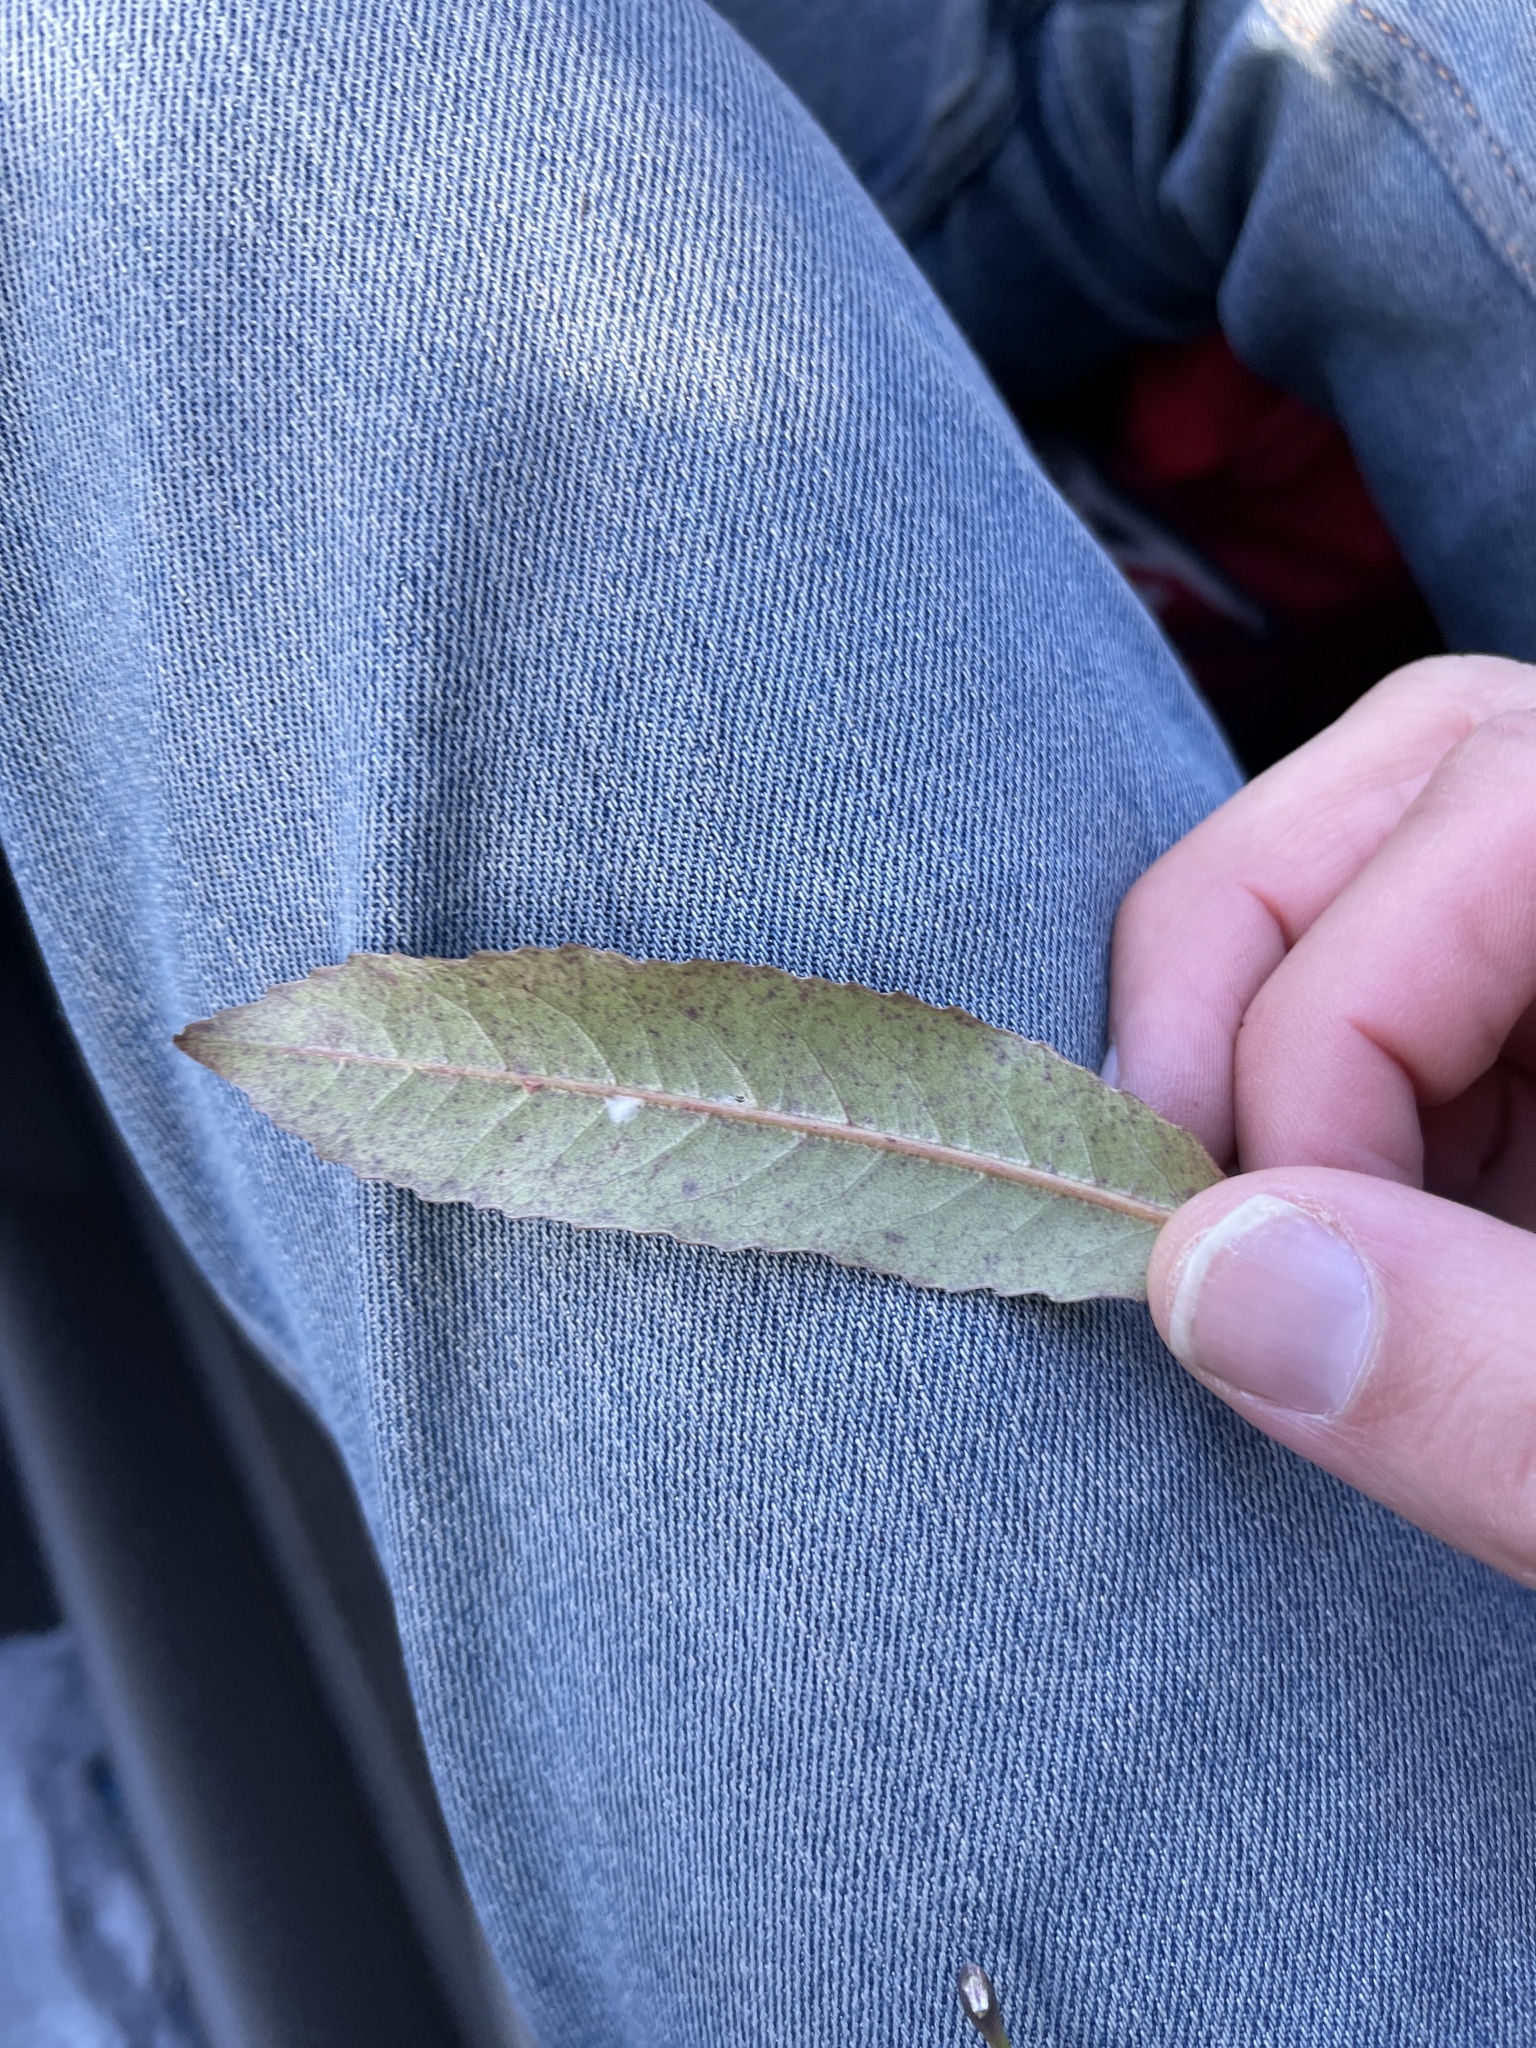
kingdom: Plantae
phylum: Tracheophyta
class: Magnoliopsida
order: Oxalidales
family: Elaeocarpaceae
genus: Elaeocarpus
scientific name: Elaeocarpus dentatus
